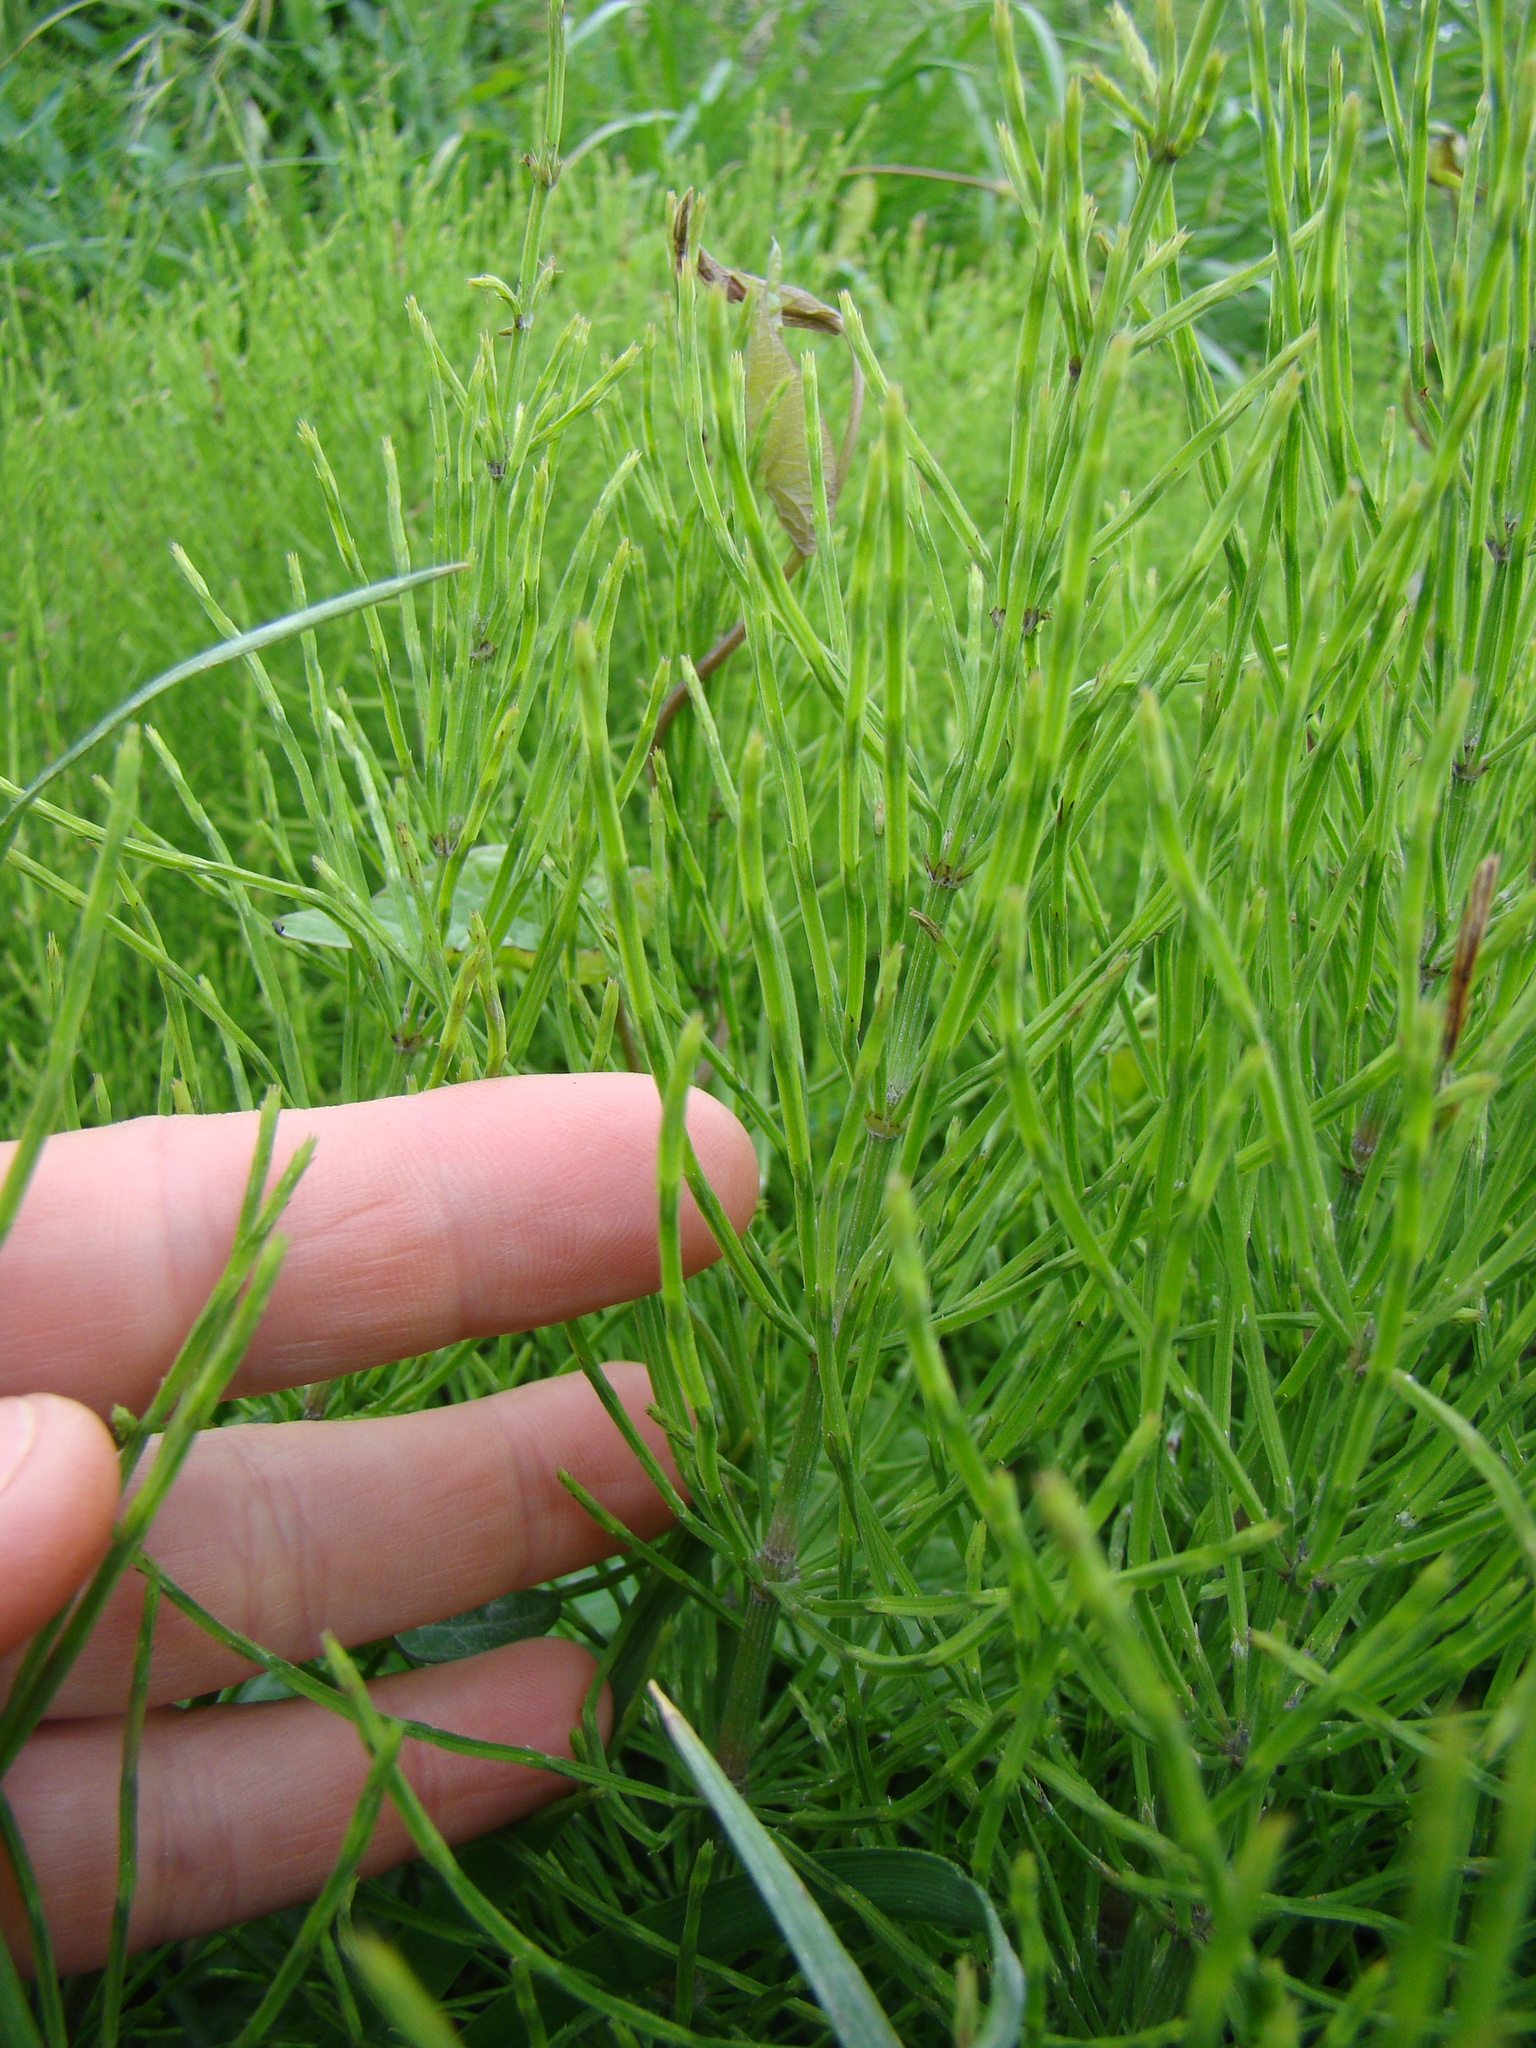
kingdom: Plantae
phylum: Tracheophyta
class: Polypodiopsida
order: Equisetales
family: Equisetaceae
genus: Equisetum
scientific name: Equisetum arvense
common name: Field horsetail
